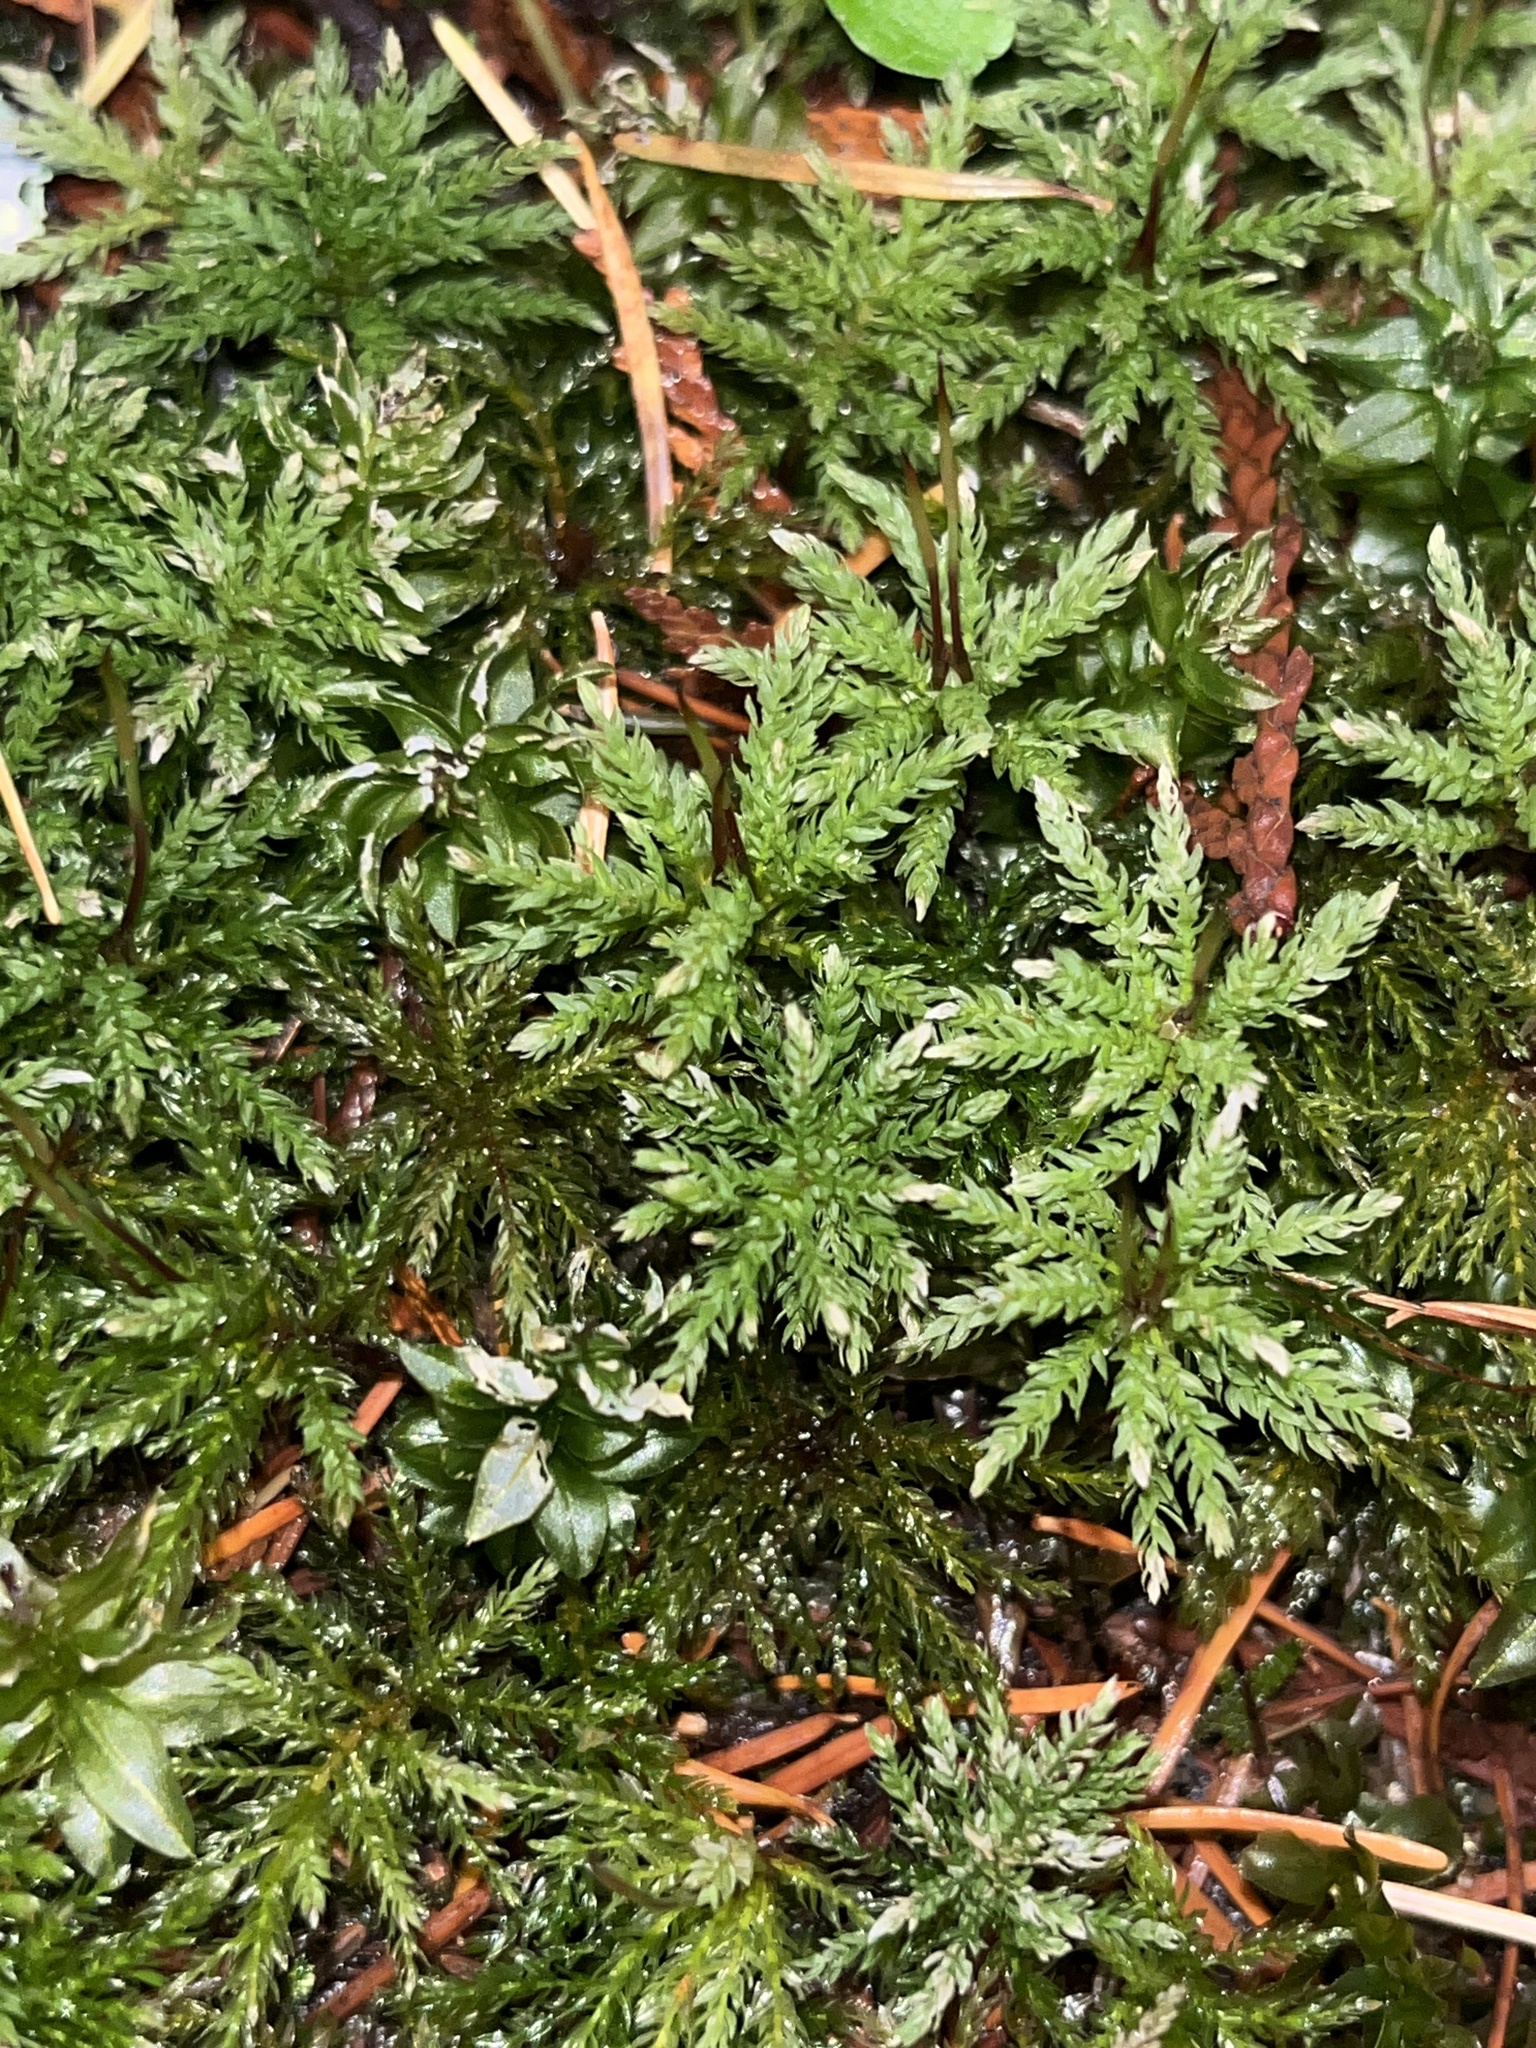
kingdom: Plantae
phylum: Bryophyta
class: Bryopsida
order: Bryales
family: Mniaceae
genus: Leucolepis
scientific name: Leucolepis acanthoneura
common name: Leucolepis umbrella moss
